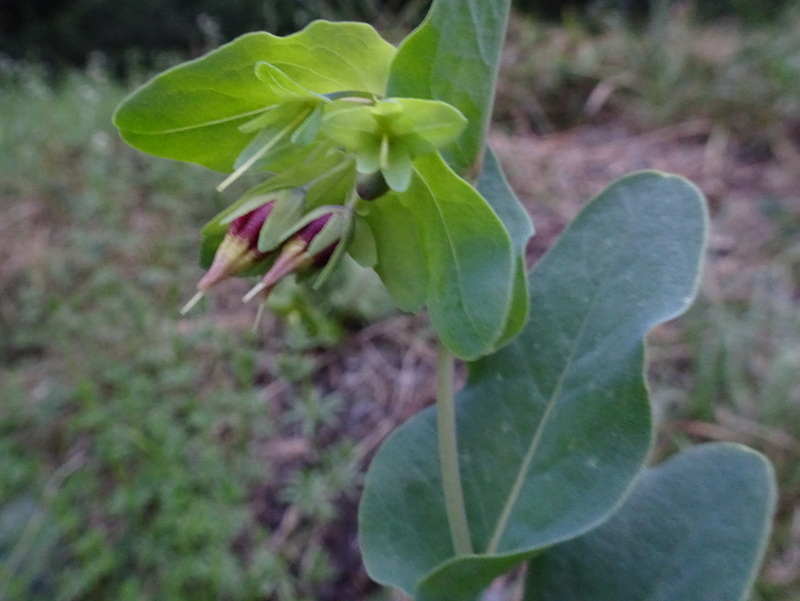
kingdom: Plantae
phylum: Tracheophyta
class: Magnoliopsida
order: Boraginales
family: Boraginaceae
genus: Cerinthe
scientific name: Cerinthe minor
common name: Lesser honeywort
